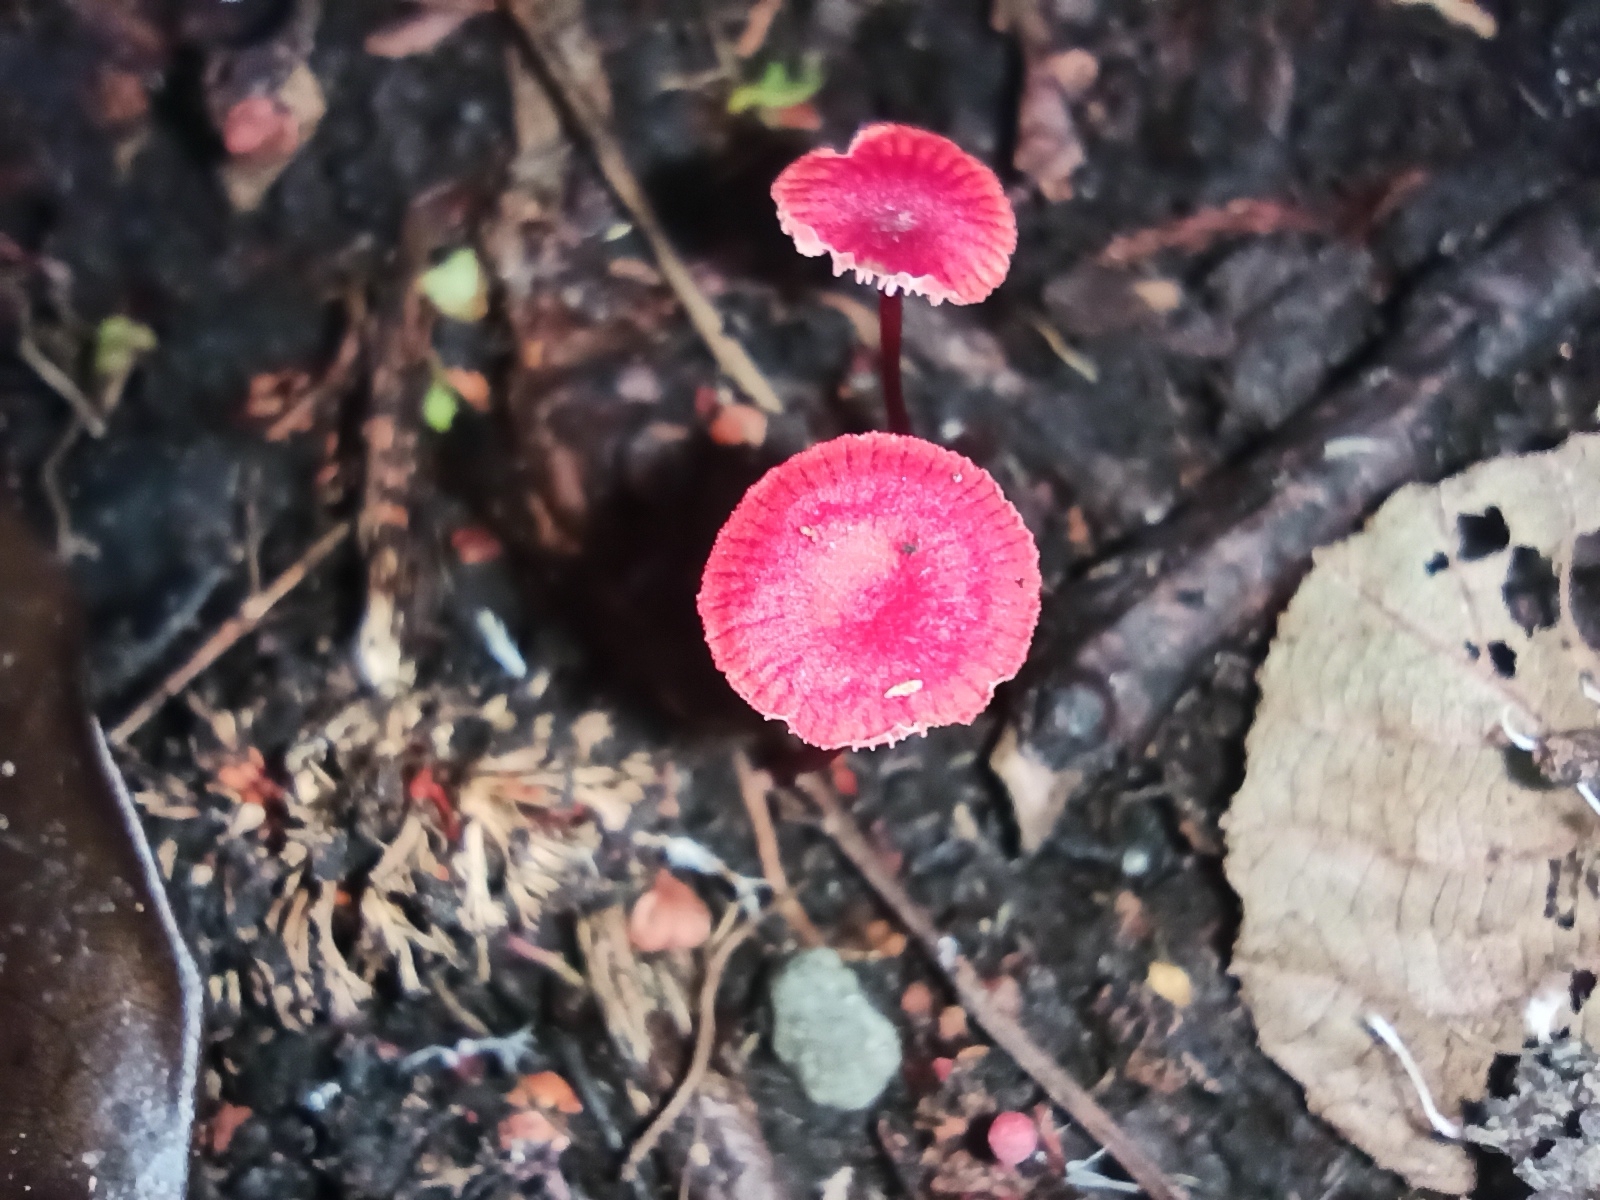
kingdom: Fungi
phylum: Basidiomycota
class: Agaricomycetes
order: Agaricales
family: Mycenaceae
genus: Cruentomycena
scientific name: Cruentomycena viscidocruenta
